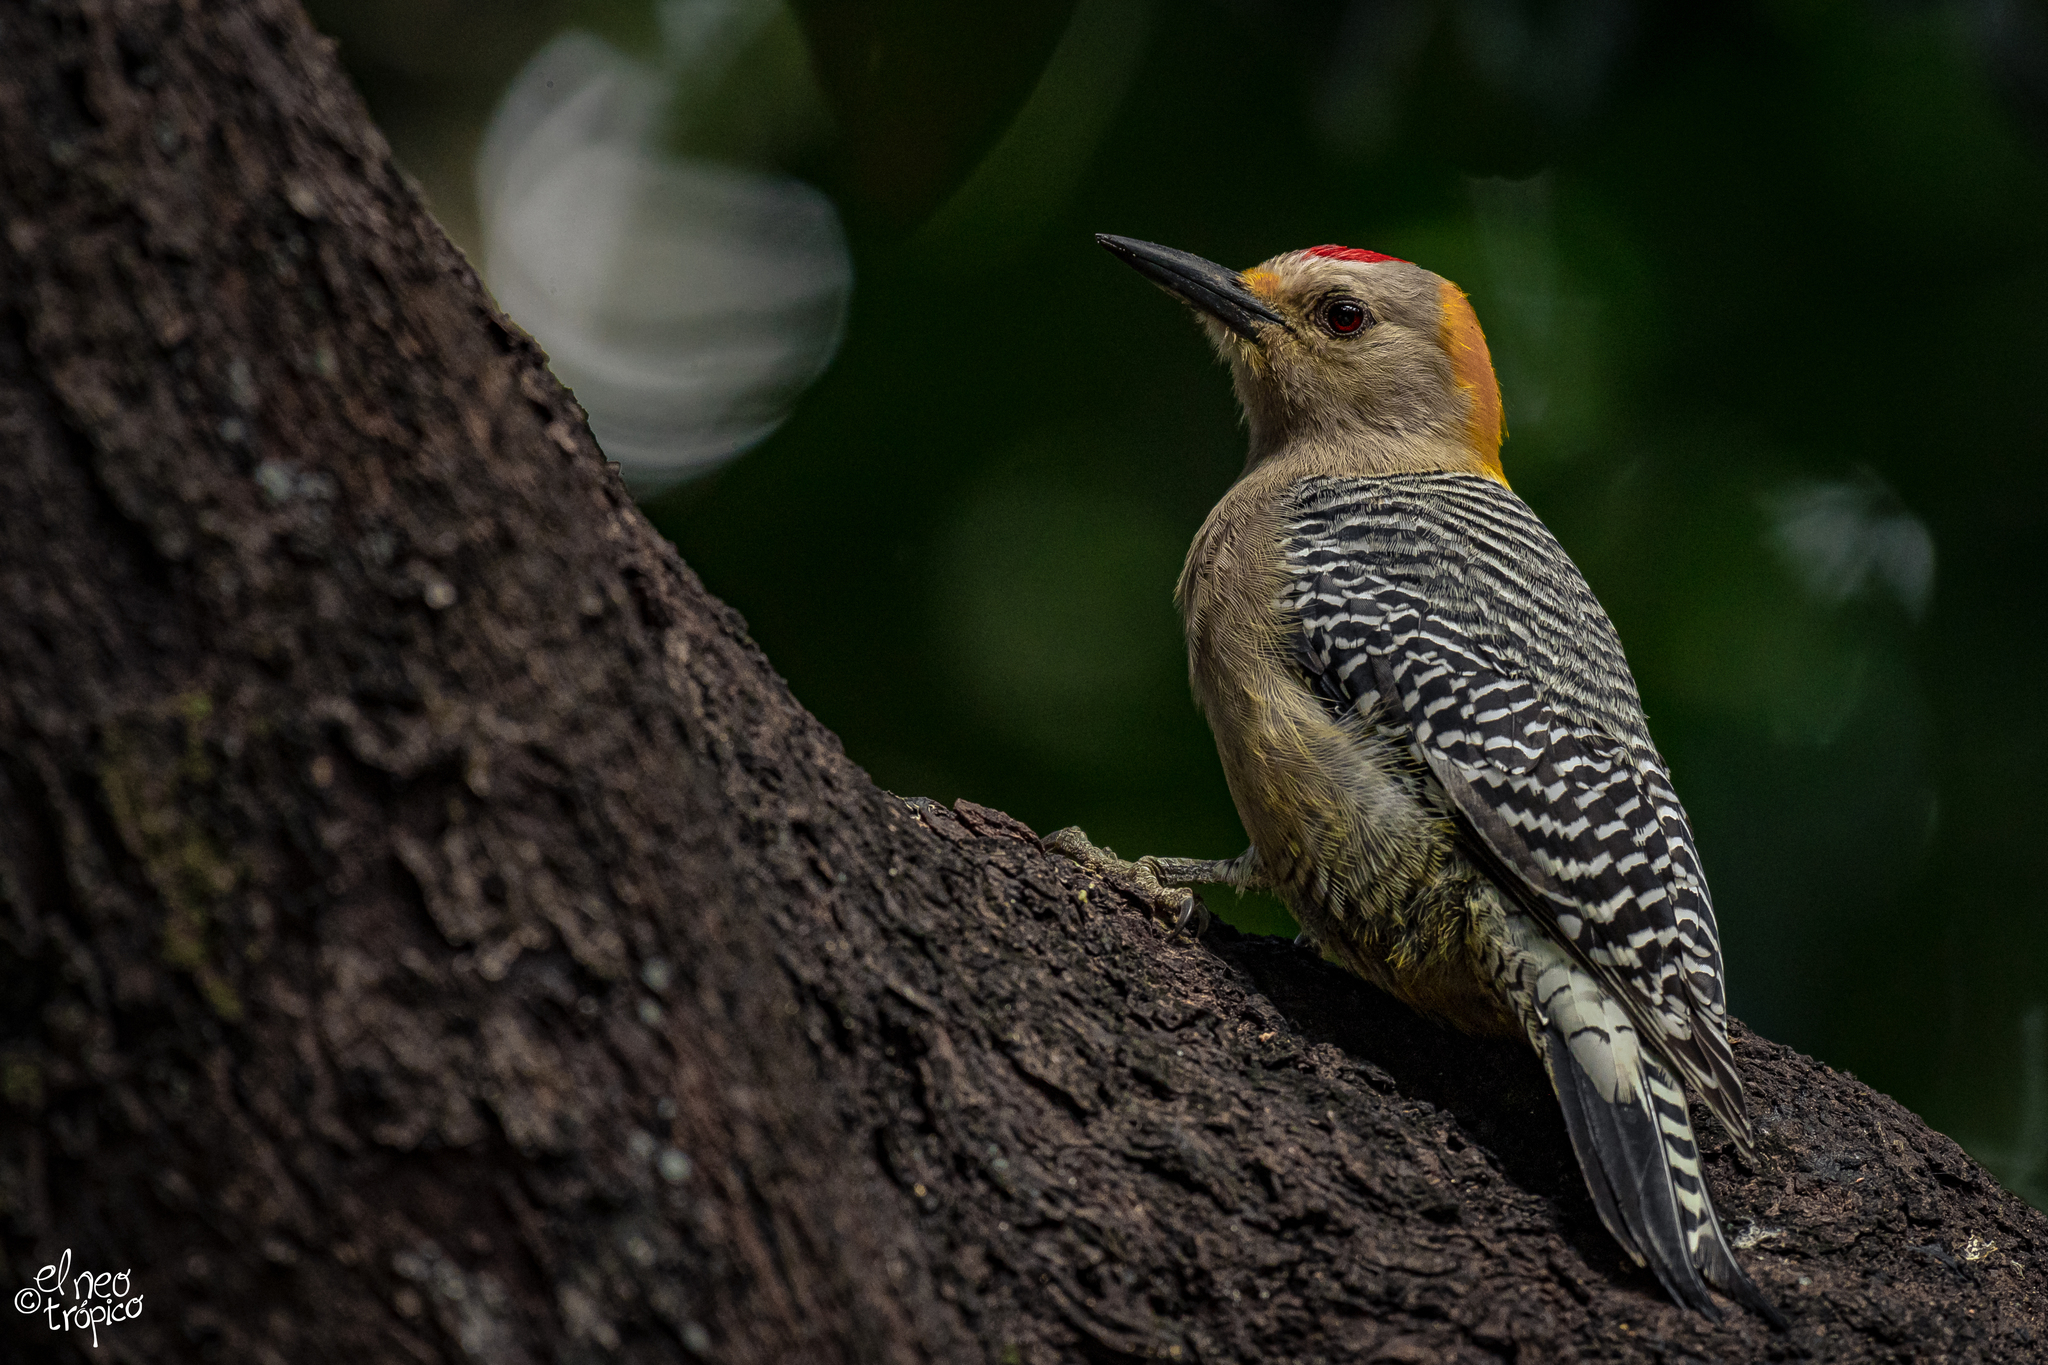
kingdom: Animalia
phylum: Chordata
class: Aves
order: Piciformes
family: Picidae
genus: Melanerpes
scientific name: Melanerpes aurifrons
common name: Golden-fronted woodpecker
